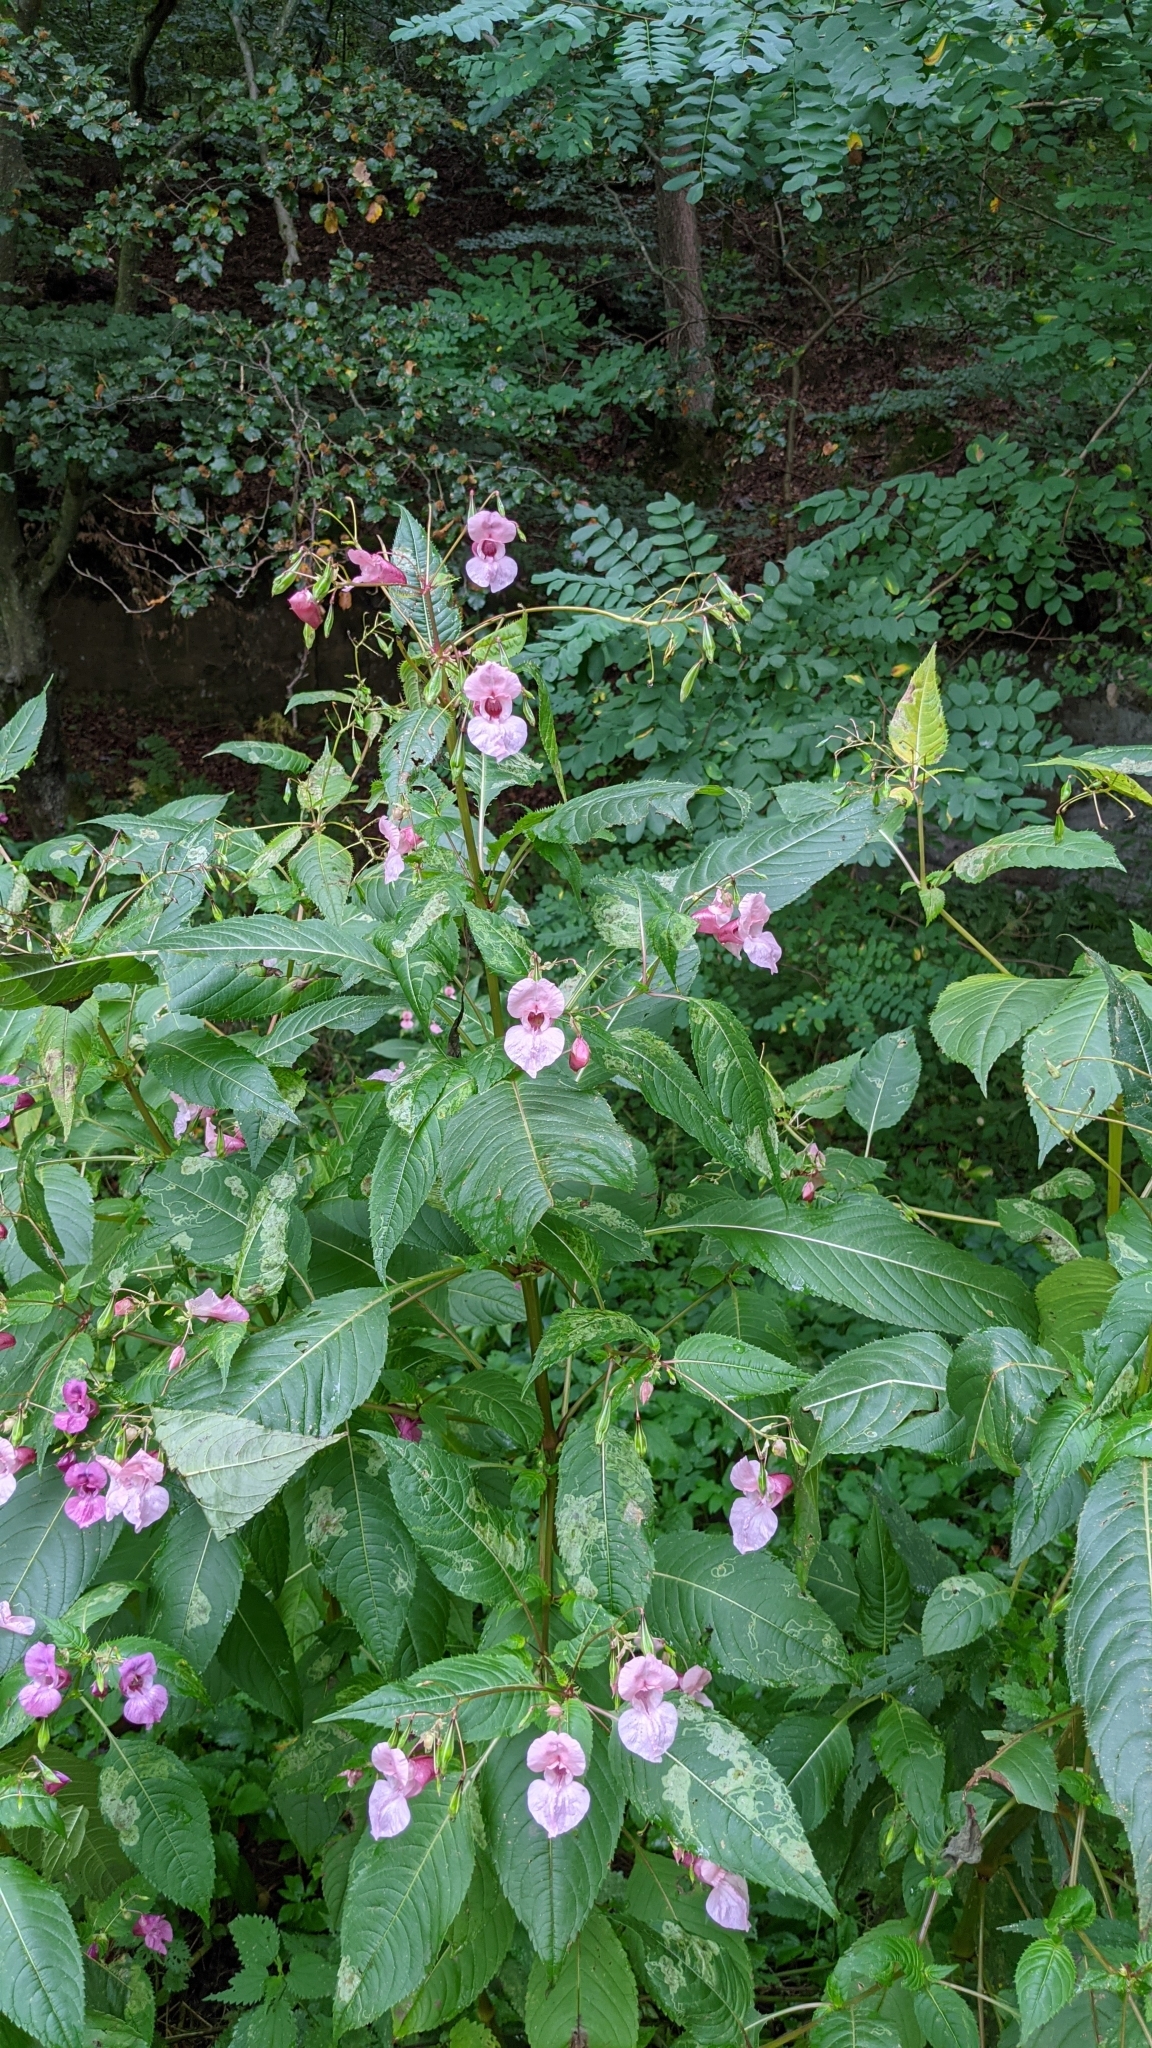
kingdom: Plantae
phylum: Tracheophyta
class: Magnoliopsida
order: Ericales
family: Balsaminaceae
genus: Impatiens
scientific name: Impatiens glandulifera
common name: Himalayan balsam
